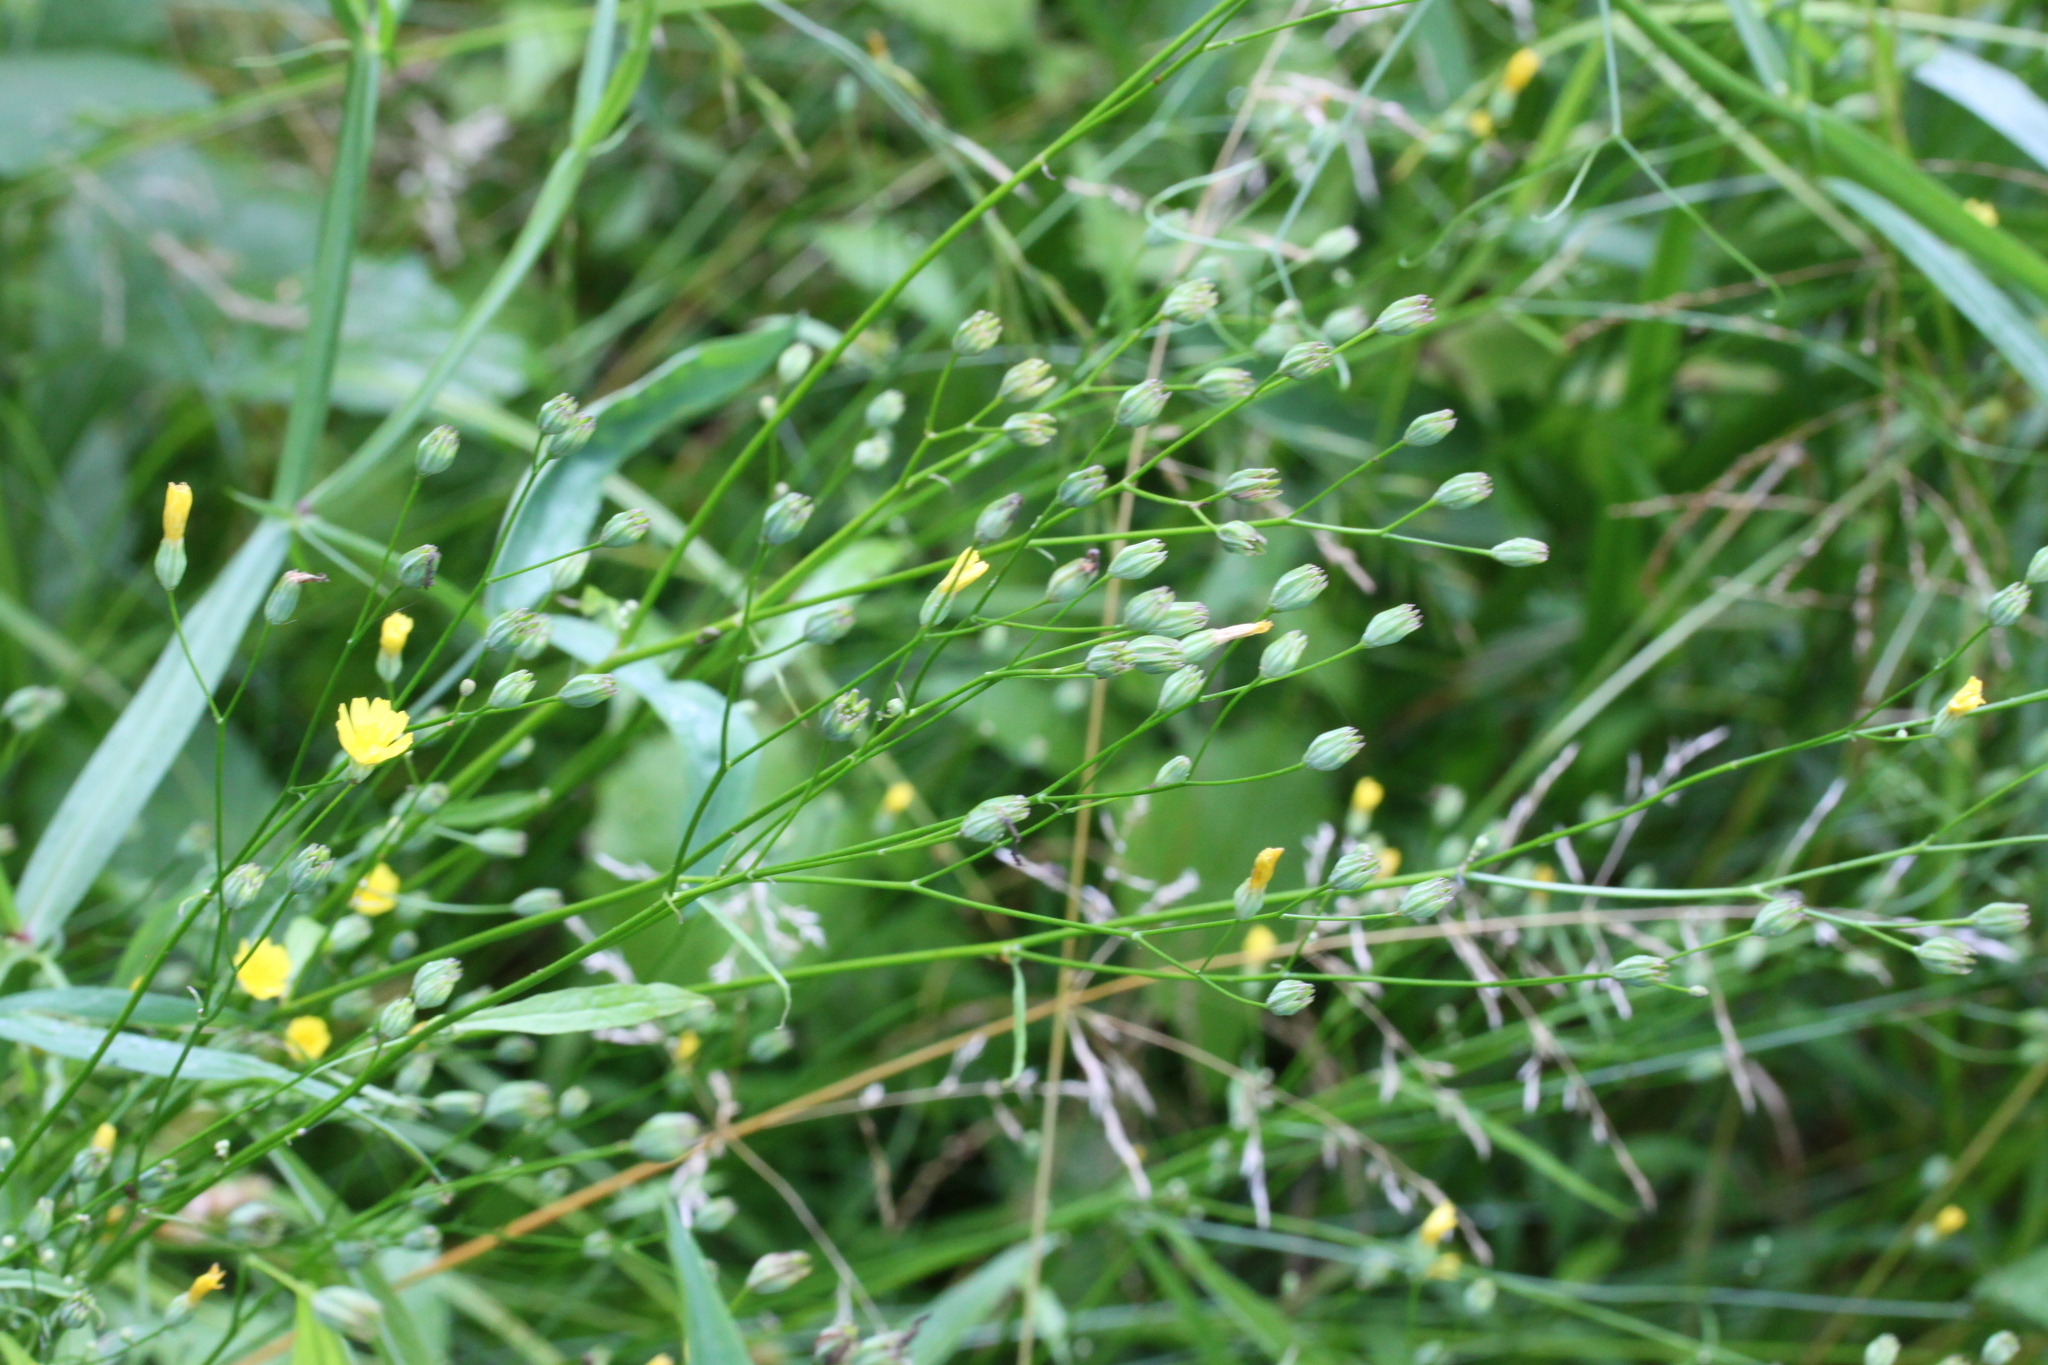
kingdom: Plantae
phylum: Tracheophyta
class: Magnoliopsida
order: Asterales
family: Asteraceae
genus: Lapsana
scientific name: Lapsana communis
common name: Nipplewort
